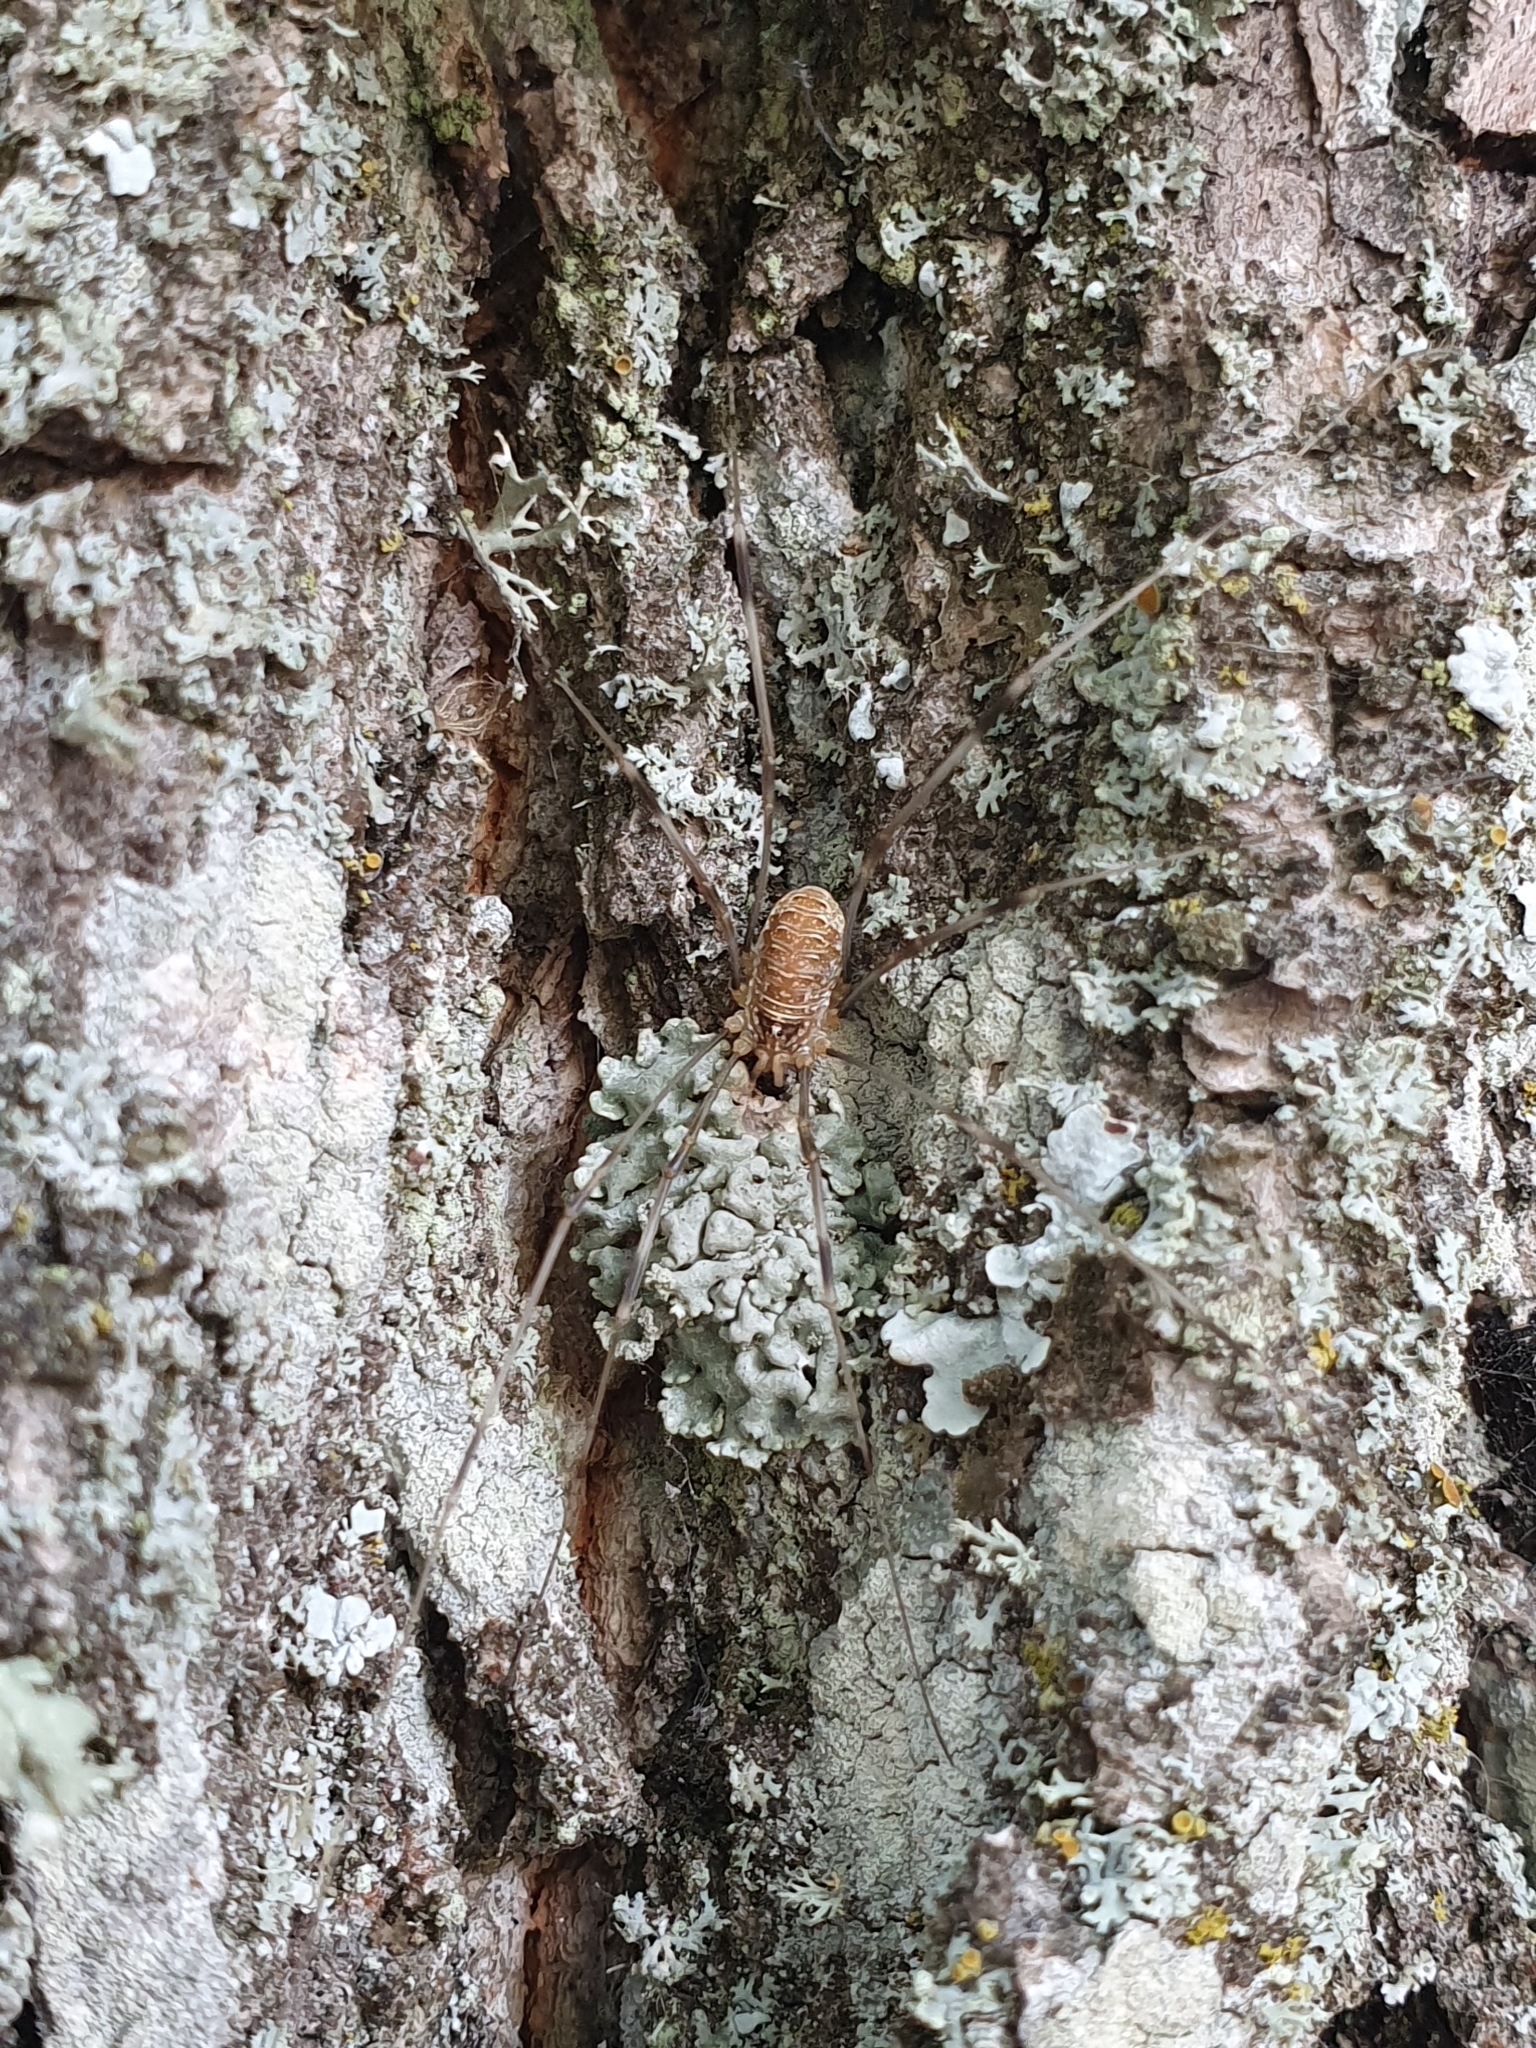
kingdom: Animalia
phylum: Arthropoda
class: Arachnida
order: Opiliones
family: Phalangiidae
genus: Opilio
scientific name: Opilio canestrinii
